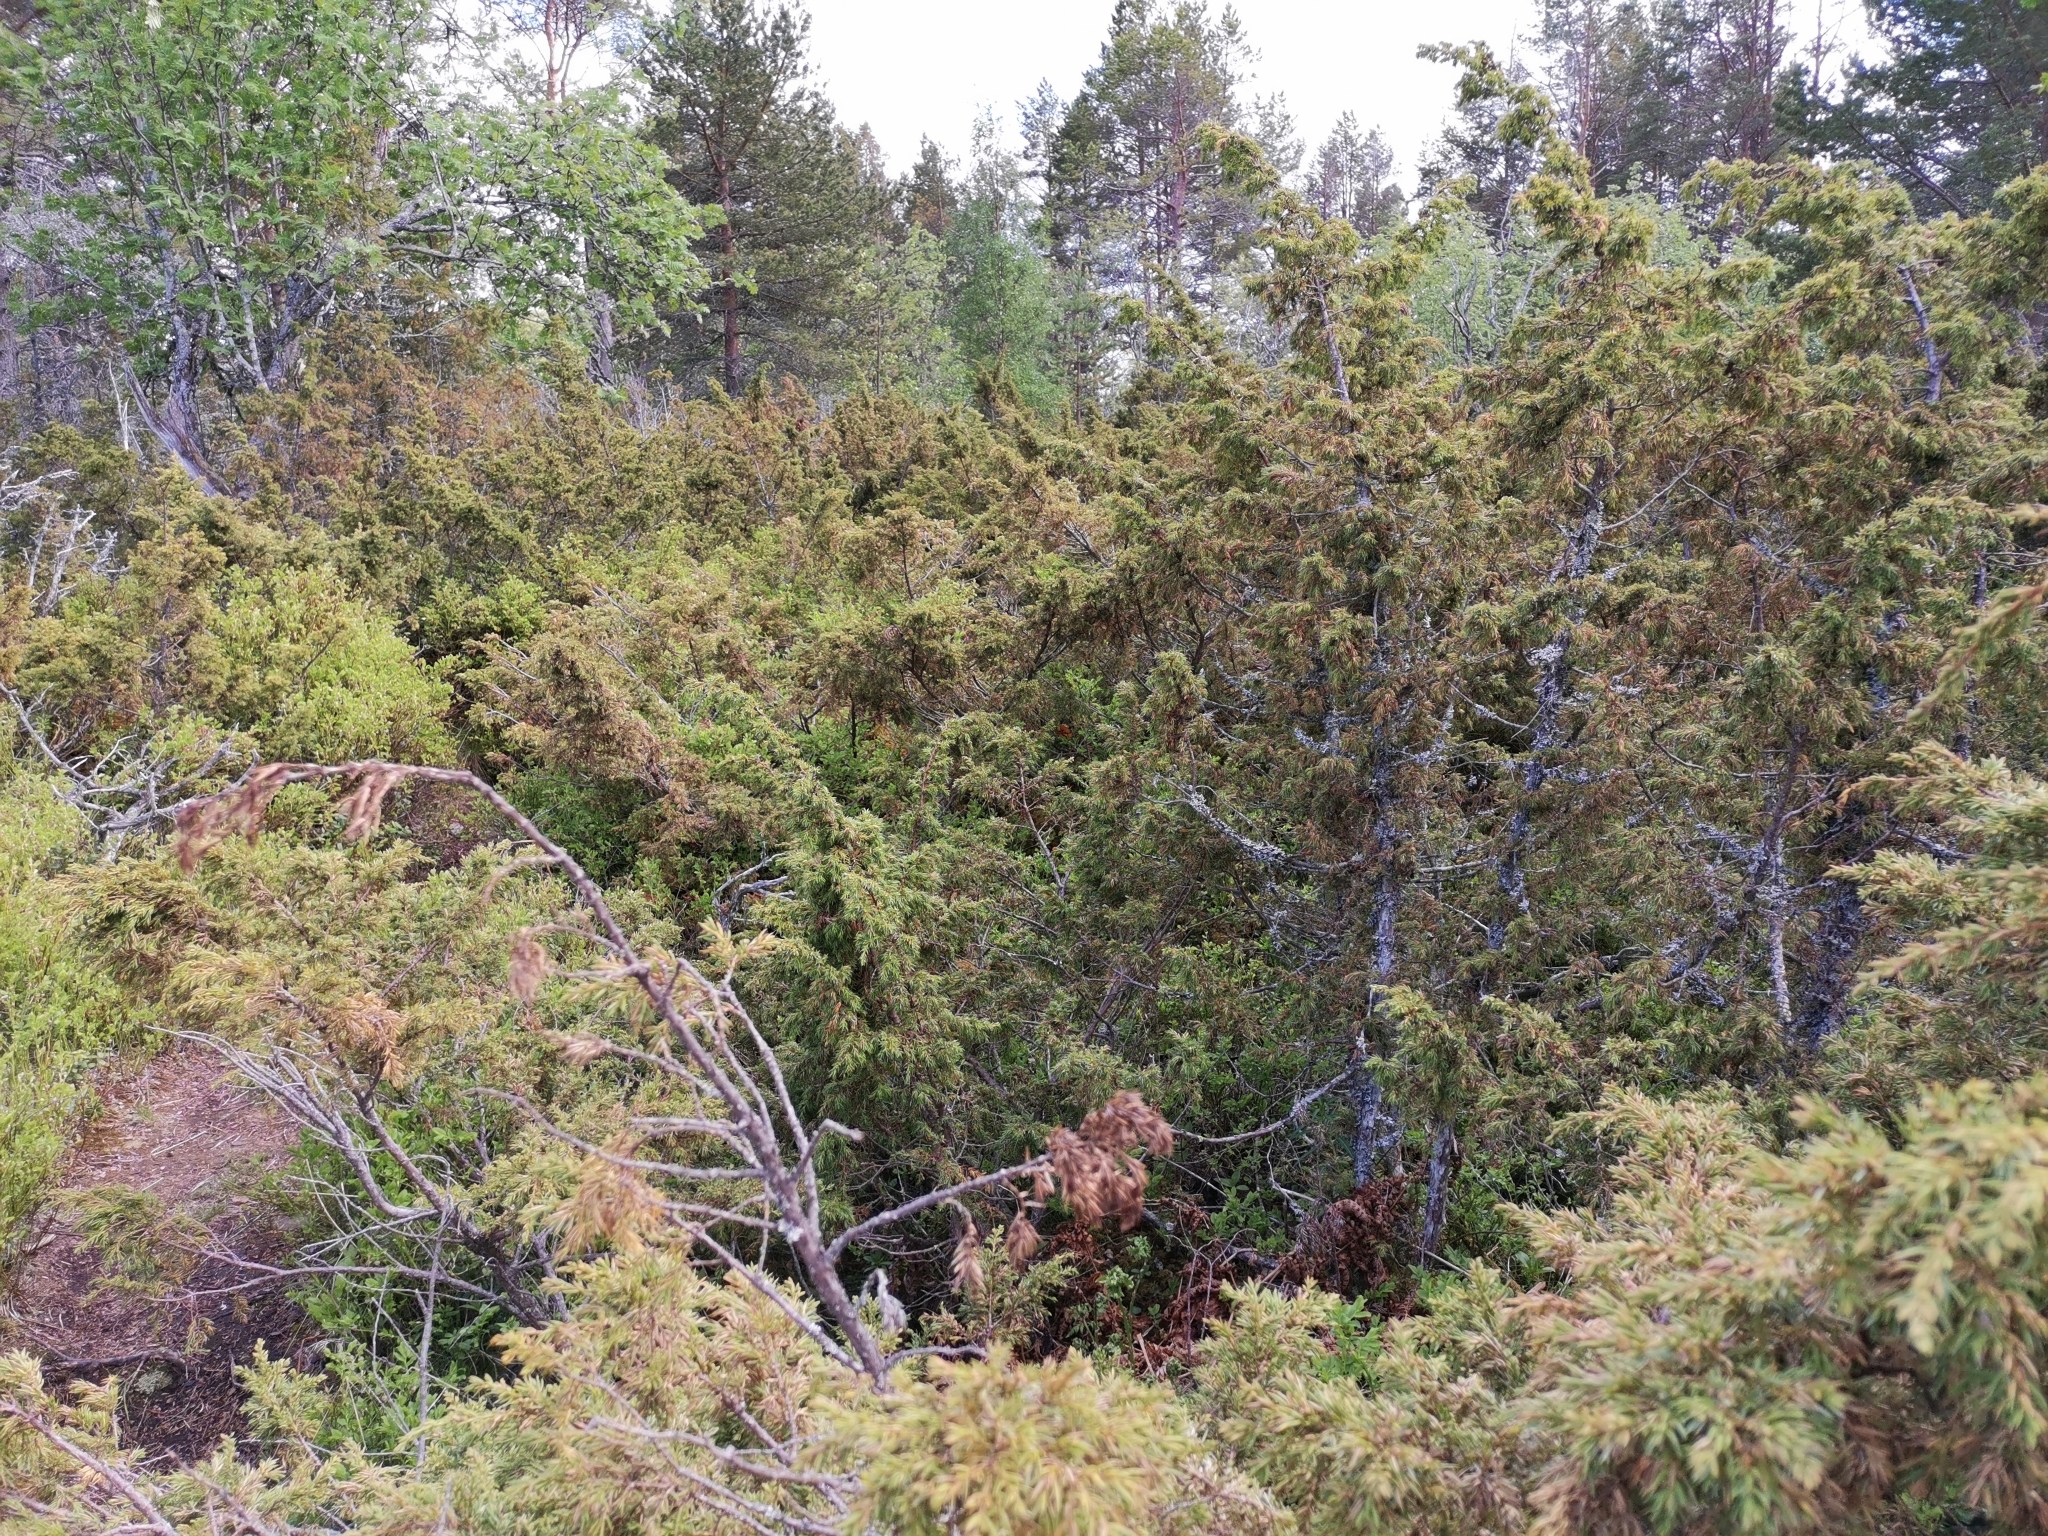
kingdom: Plantae
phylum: Tracheophyta
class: Pinopsida
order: Pinales
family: Cupressaceae
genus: Juniperus
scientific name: Juniperus communis
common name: Common juniper
